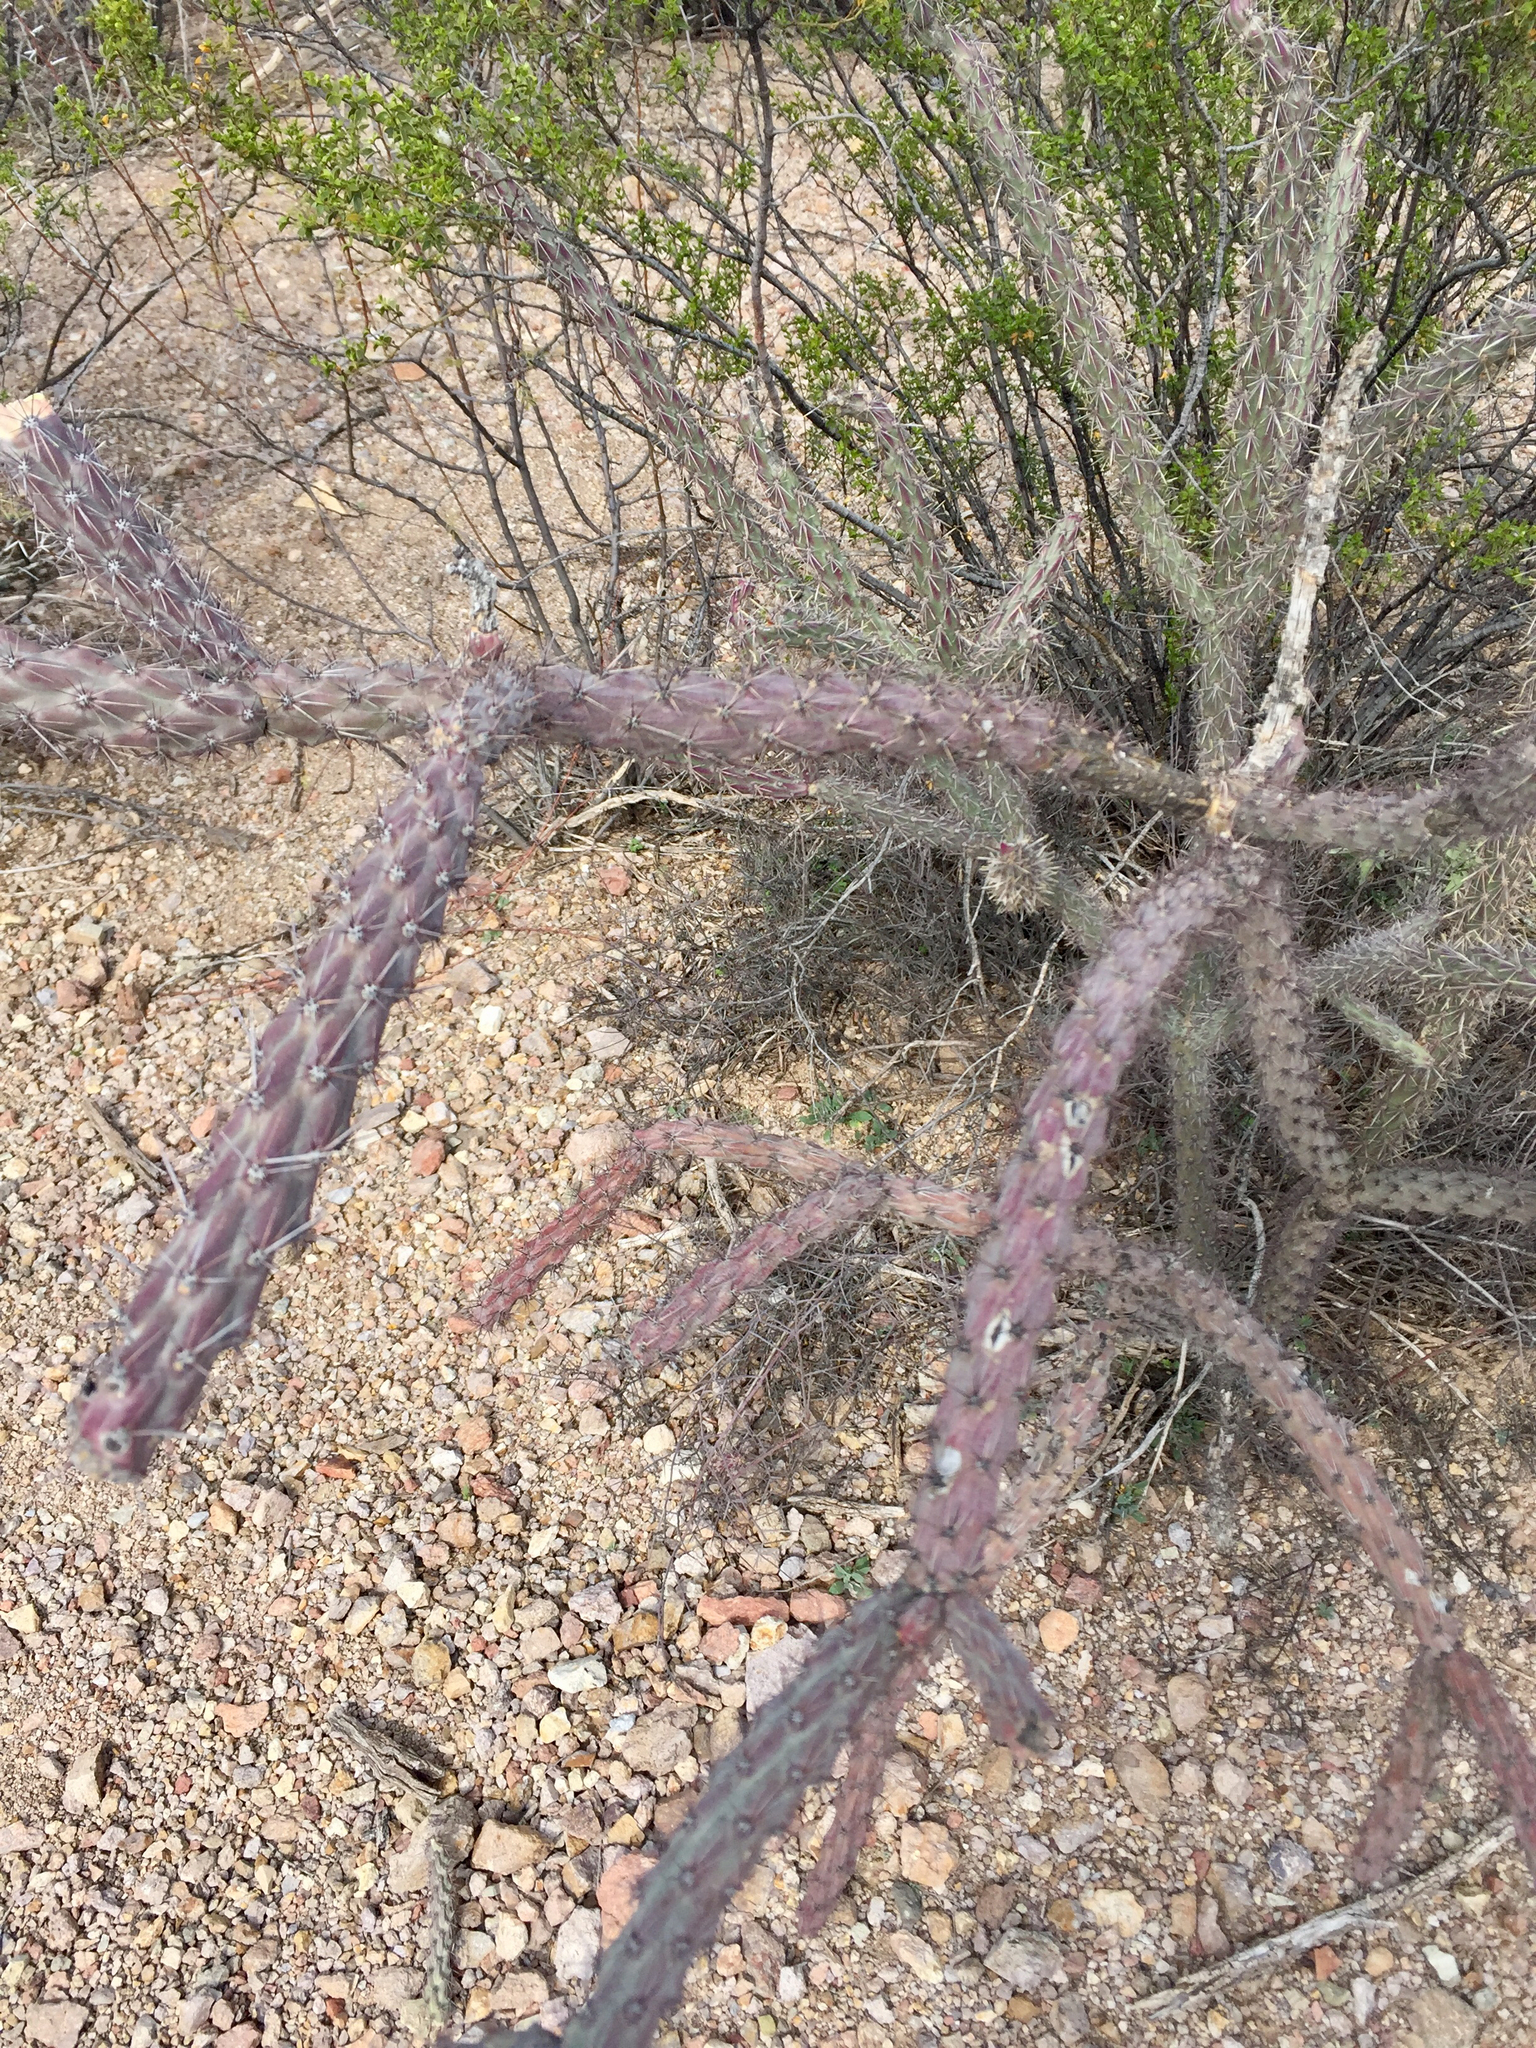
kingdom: Plantae
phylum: Tracheophyta
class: Magnoliopsida
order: Caryophyllales
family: Cactaceae
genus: Cylindropuntia
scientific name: Cylindropuntia thurberi
